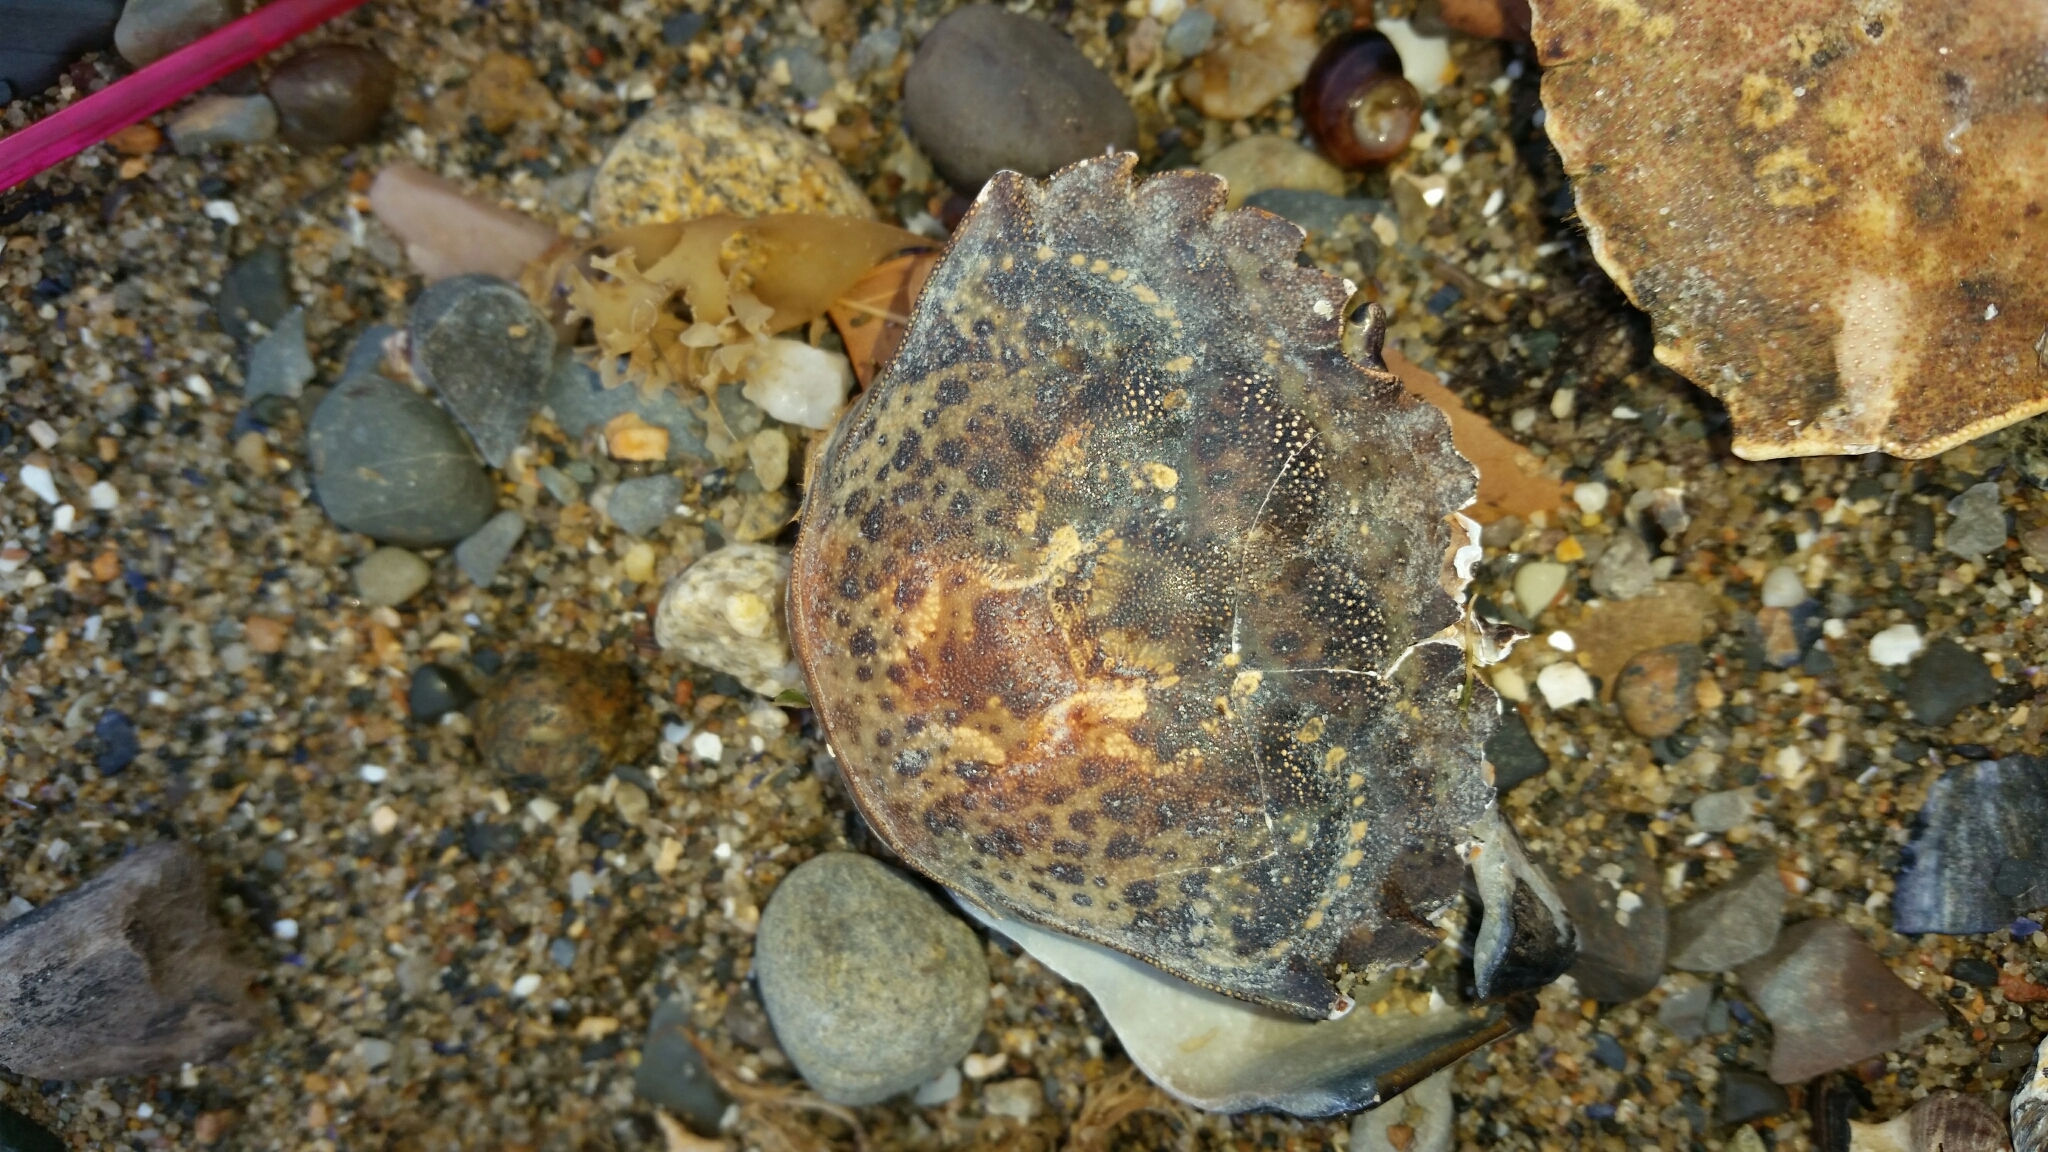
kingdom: Animalia
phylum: Arthropoda
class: Malacostraca
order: Decapoda
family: Carcinidae
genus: Carcinus
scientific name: Carcinus maenas
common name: European green crab
